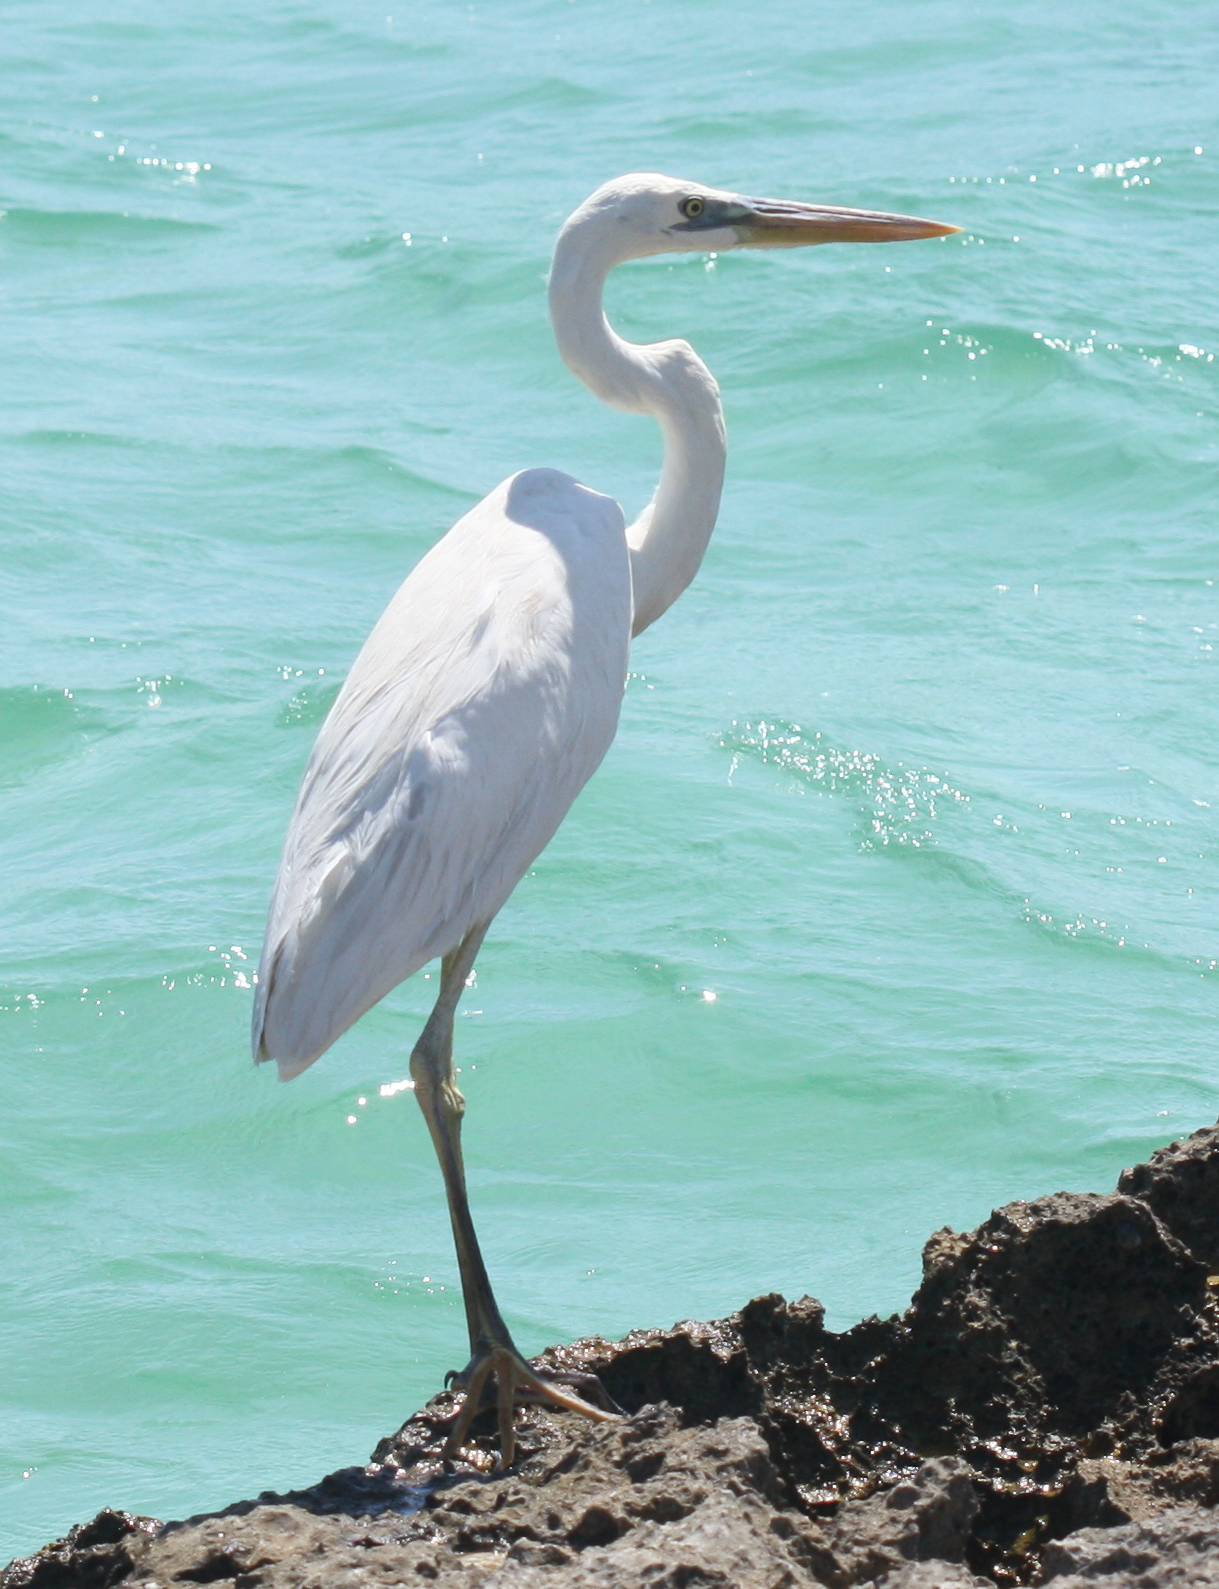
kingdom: Animalia
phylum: Chordata
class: Aves
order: Pelecaniformes
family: Ardeidae
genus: Ardea
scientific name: Ardea herodias
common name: Great blue heron
